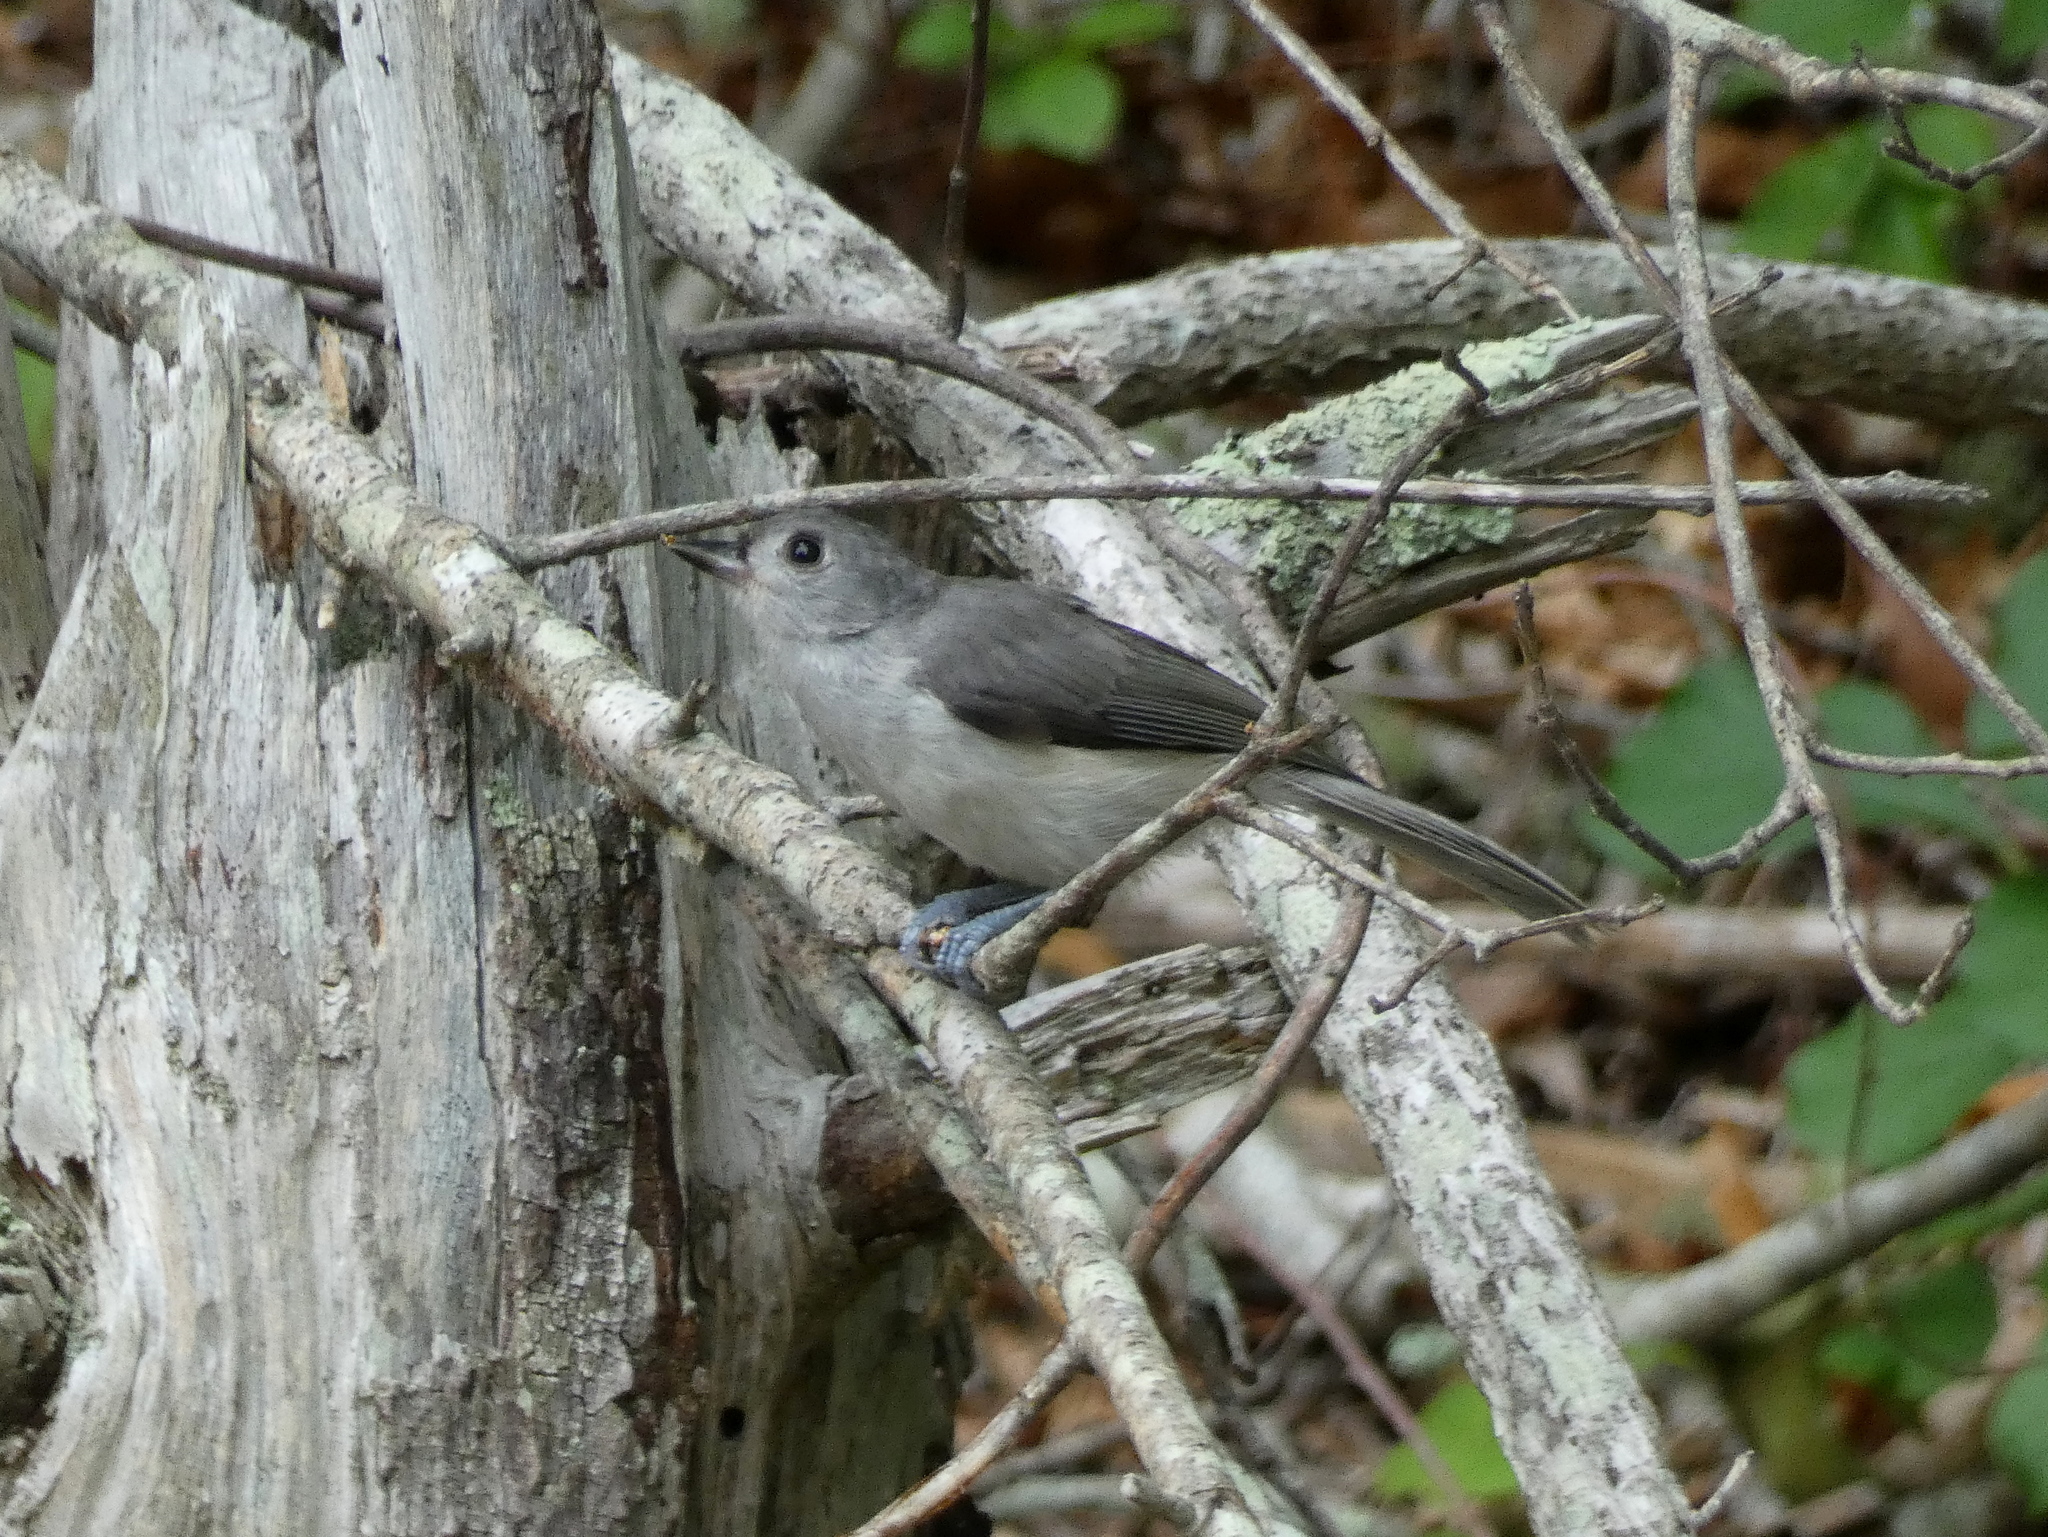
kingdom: Animalia
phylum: Chordata
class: Aves
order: Passeriformes
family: Paridae
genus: Baeolophus
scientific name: Baeolophus bicolor
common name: Tufted titmouse
